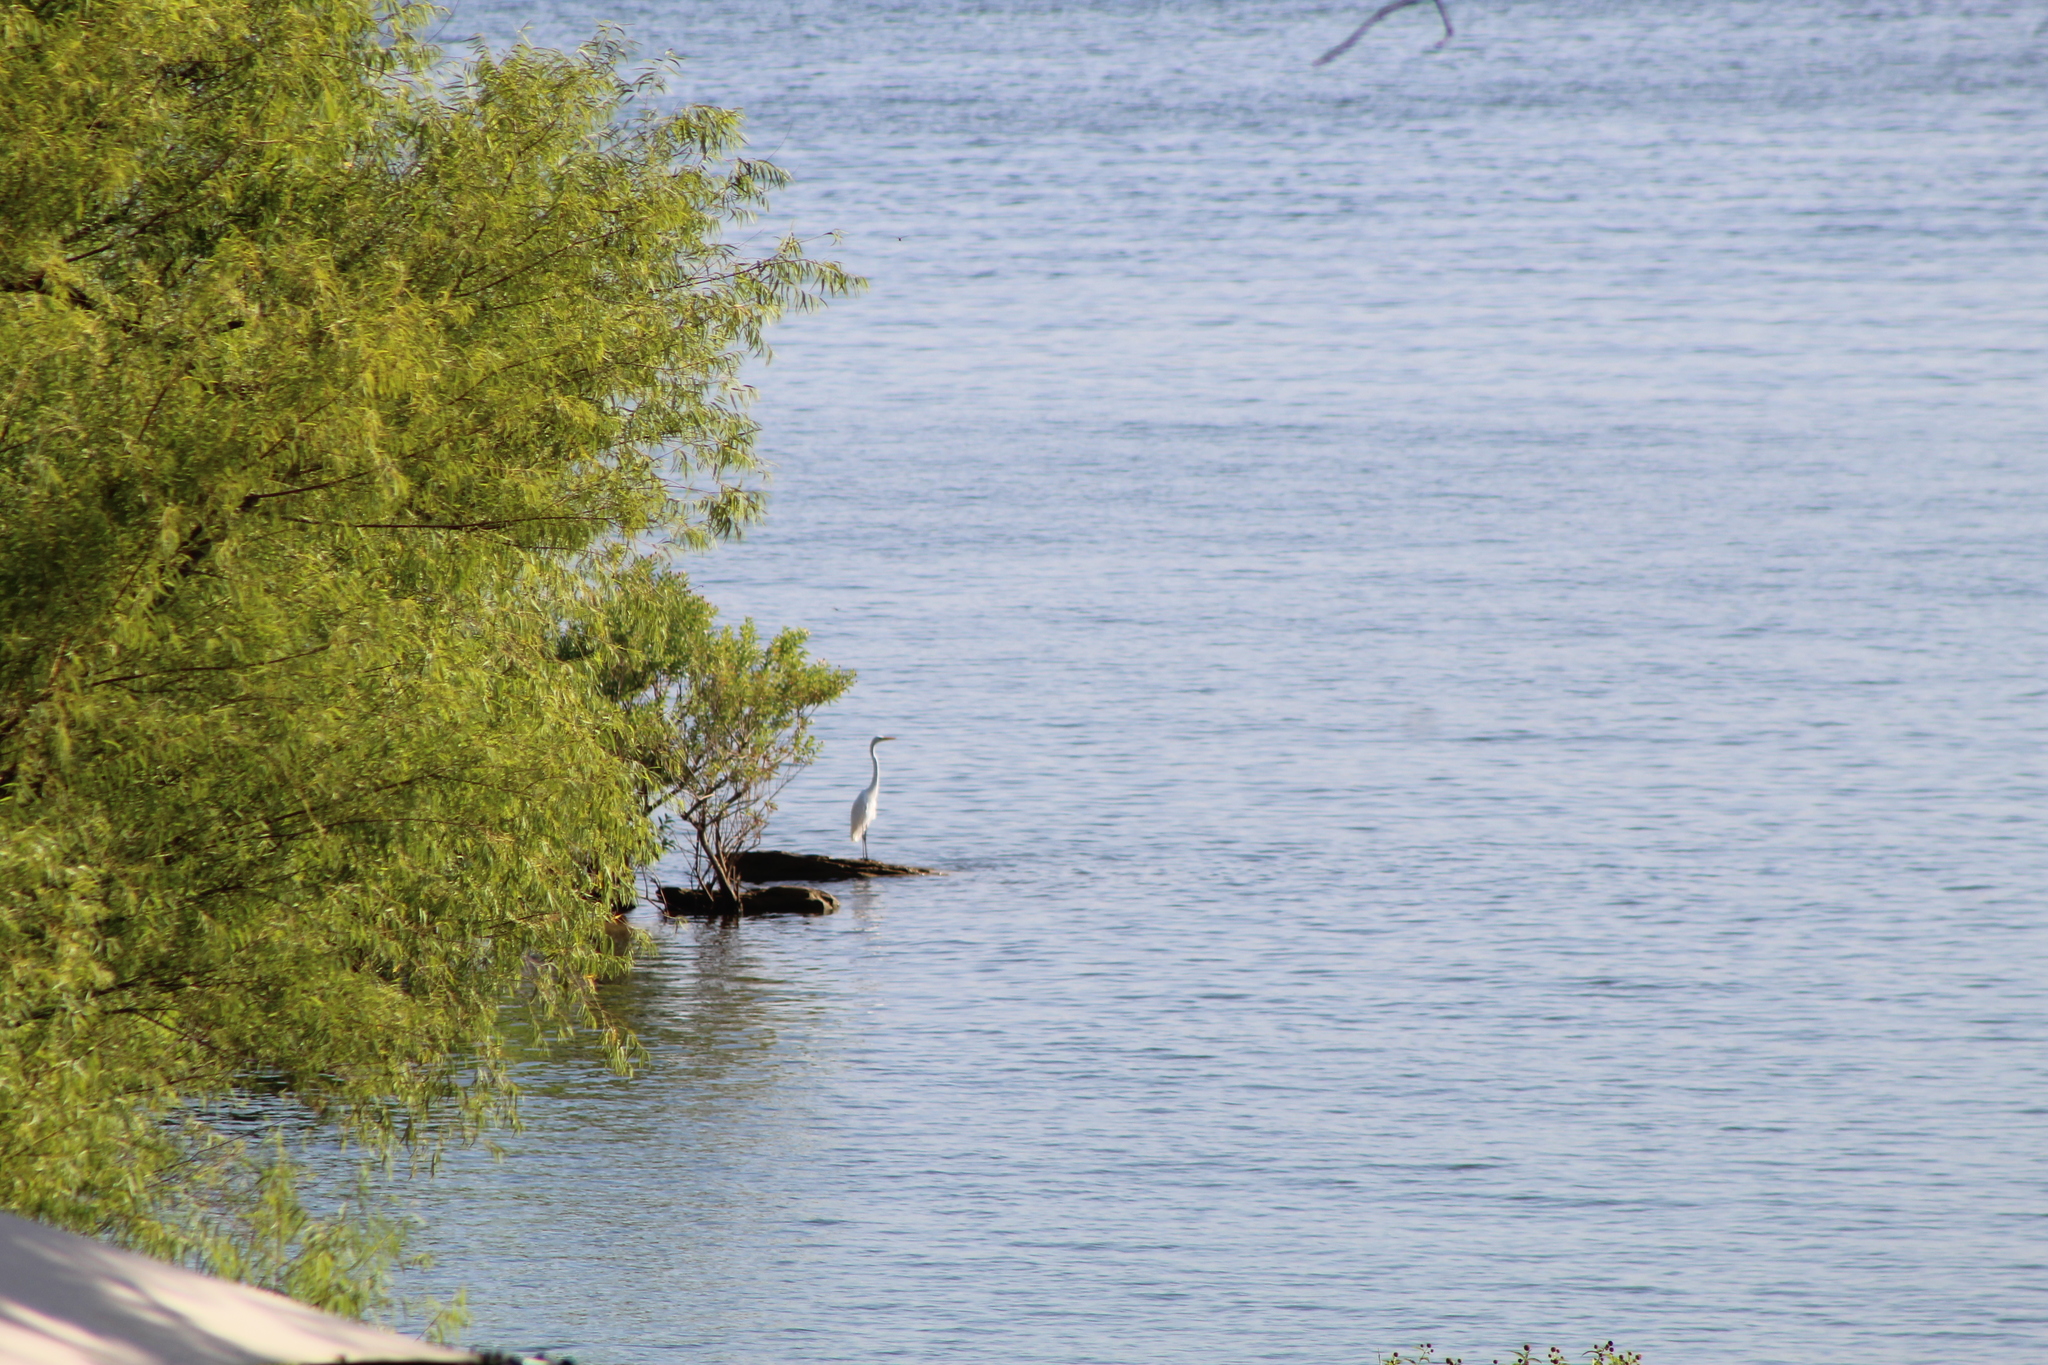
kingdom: Animalia
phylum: Chordata
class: Aves
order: Pelecaniformes
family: Ardeidae
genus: Ardea
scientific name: Ardea alba
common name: Great egret
